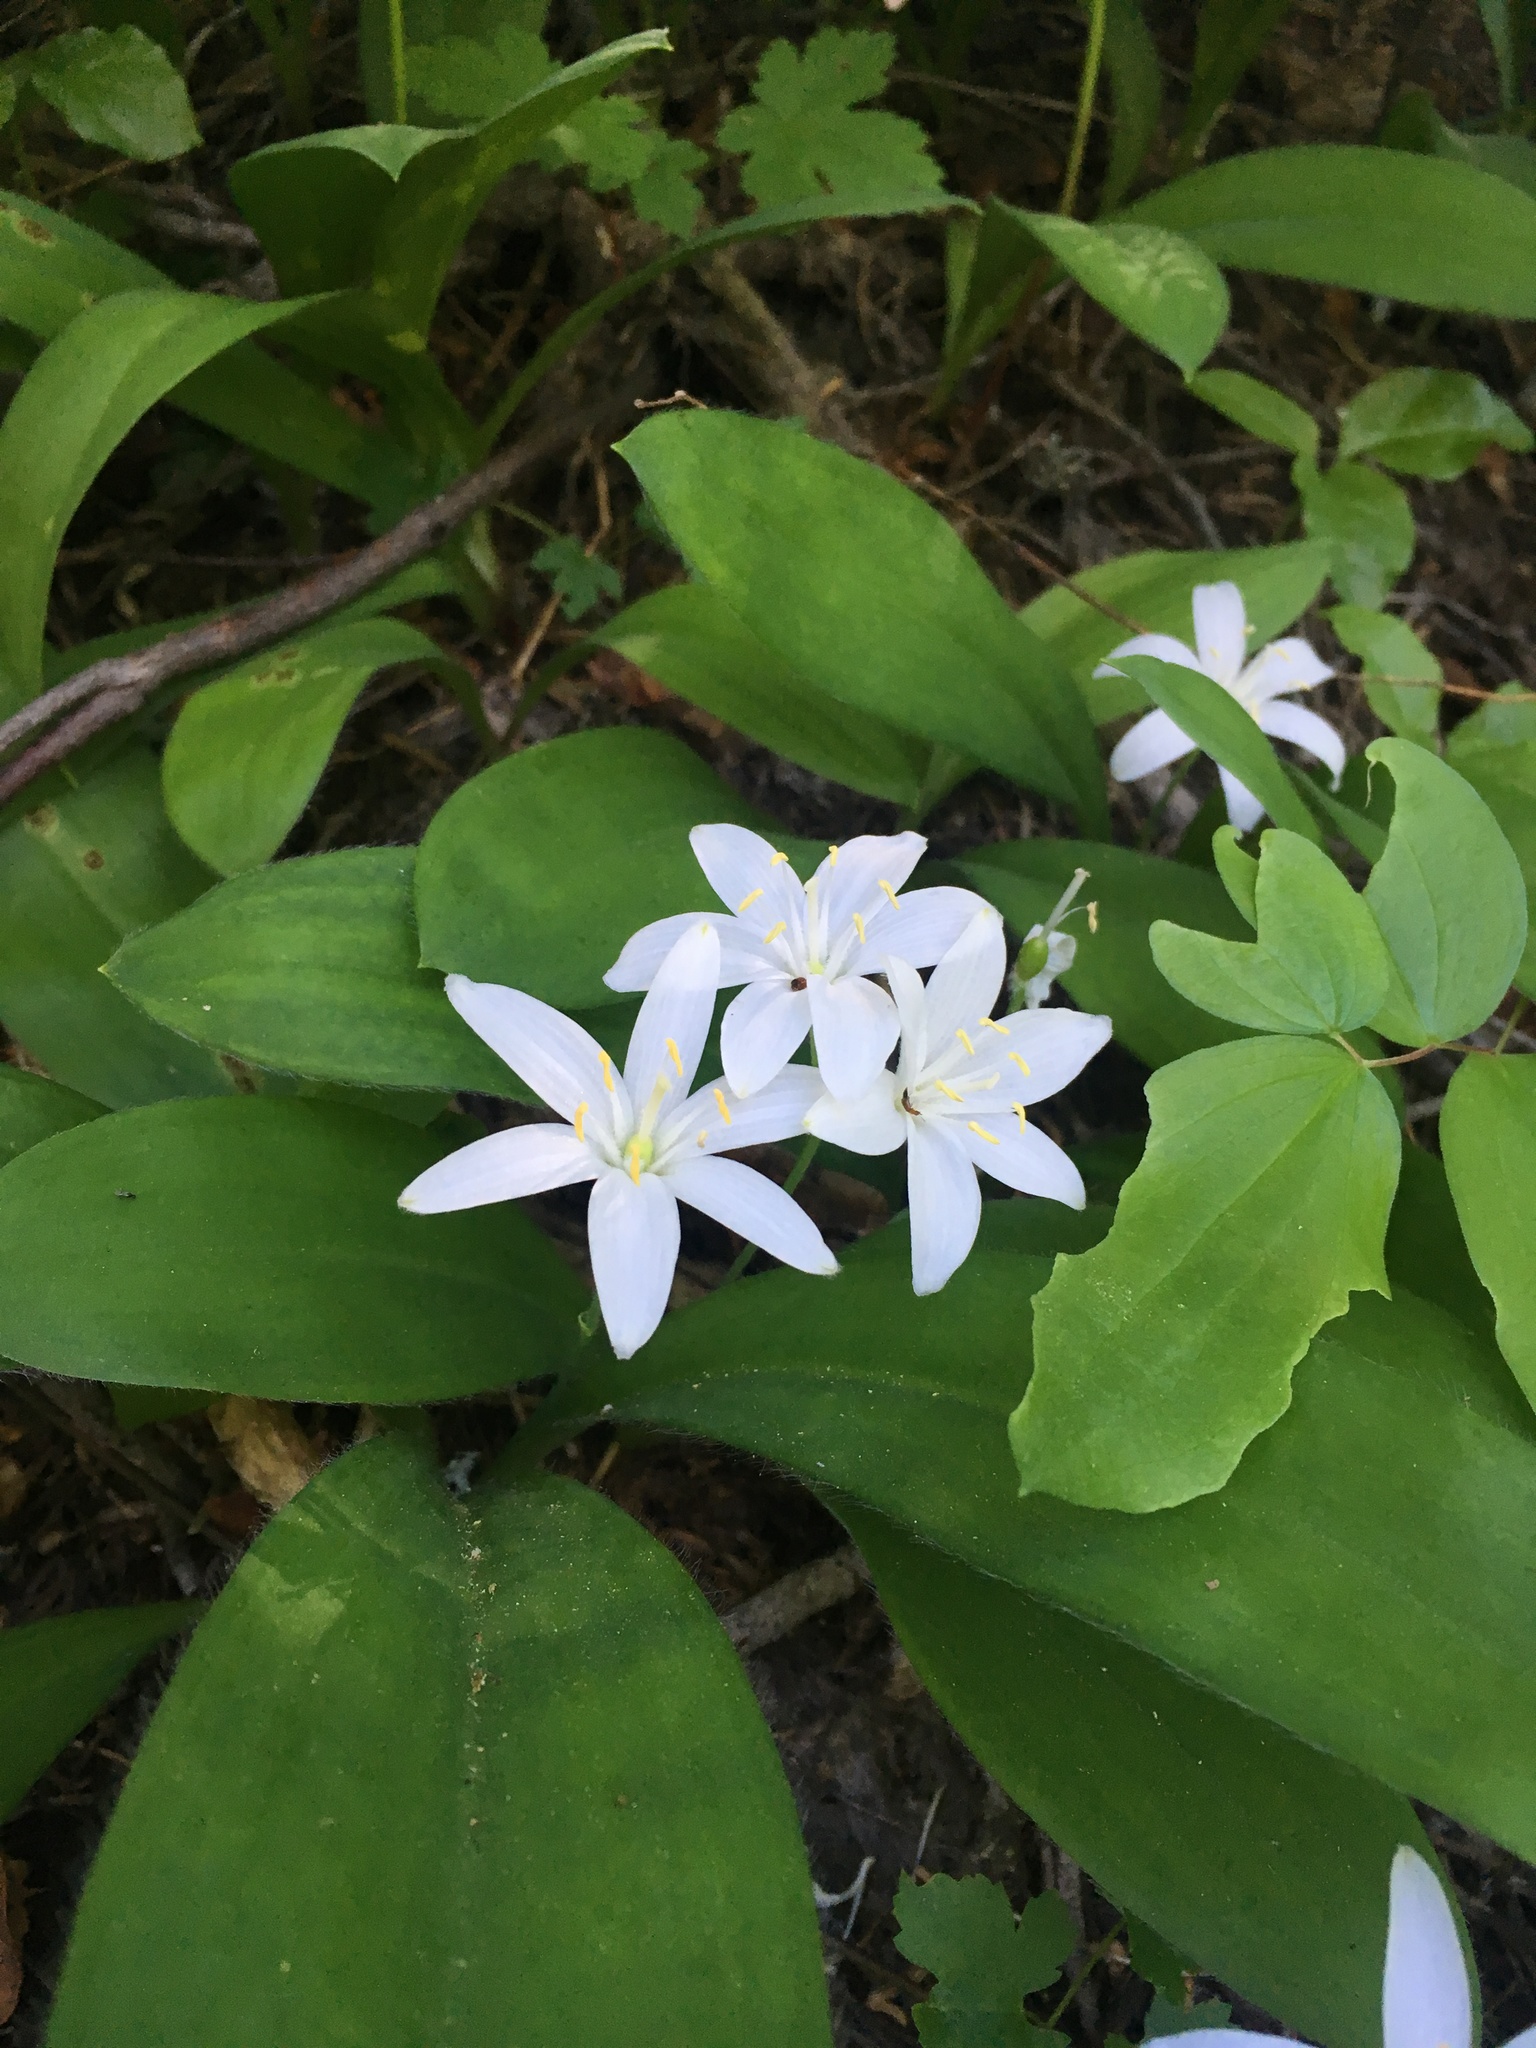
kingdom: Plantae
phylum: Tracheophyta
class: Liliopsida
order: Liliales
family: Liliaceae
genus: Clintonia
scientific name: Clintonia uniflora
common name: Queen's cup
